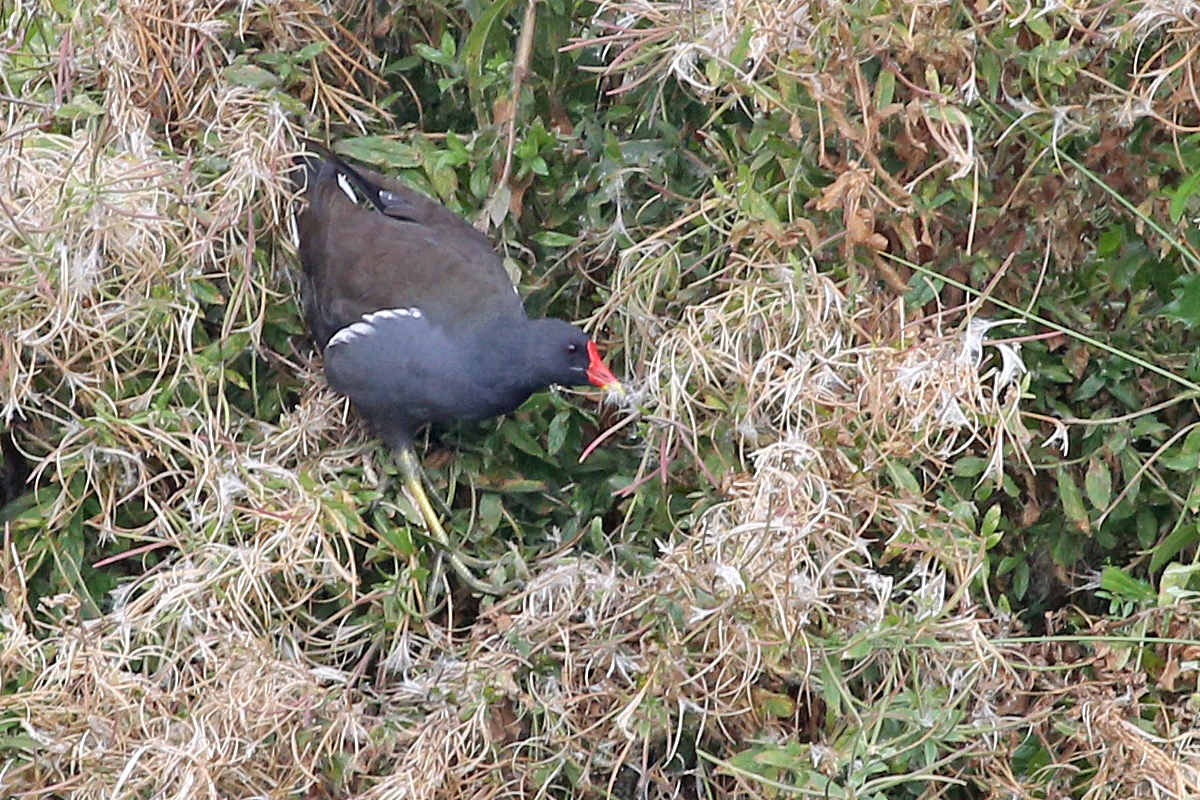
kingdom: Animalia
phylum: Chordata
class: Aves
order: Gruiformes
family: Rallidae
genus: Gallinula
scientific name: Gallinula chloropus
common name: Common moorhen
